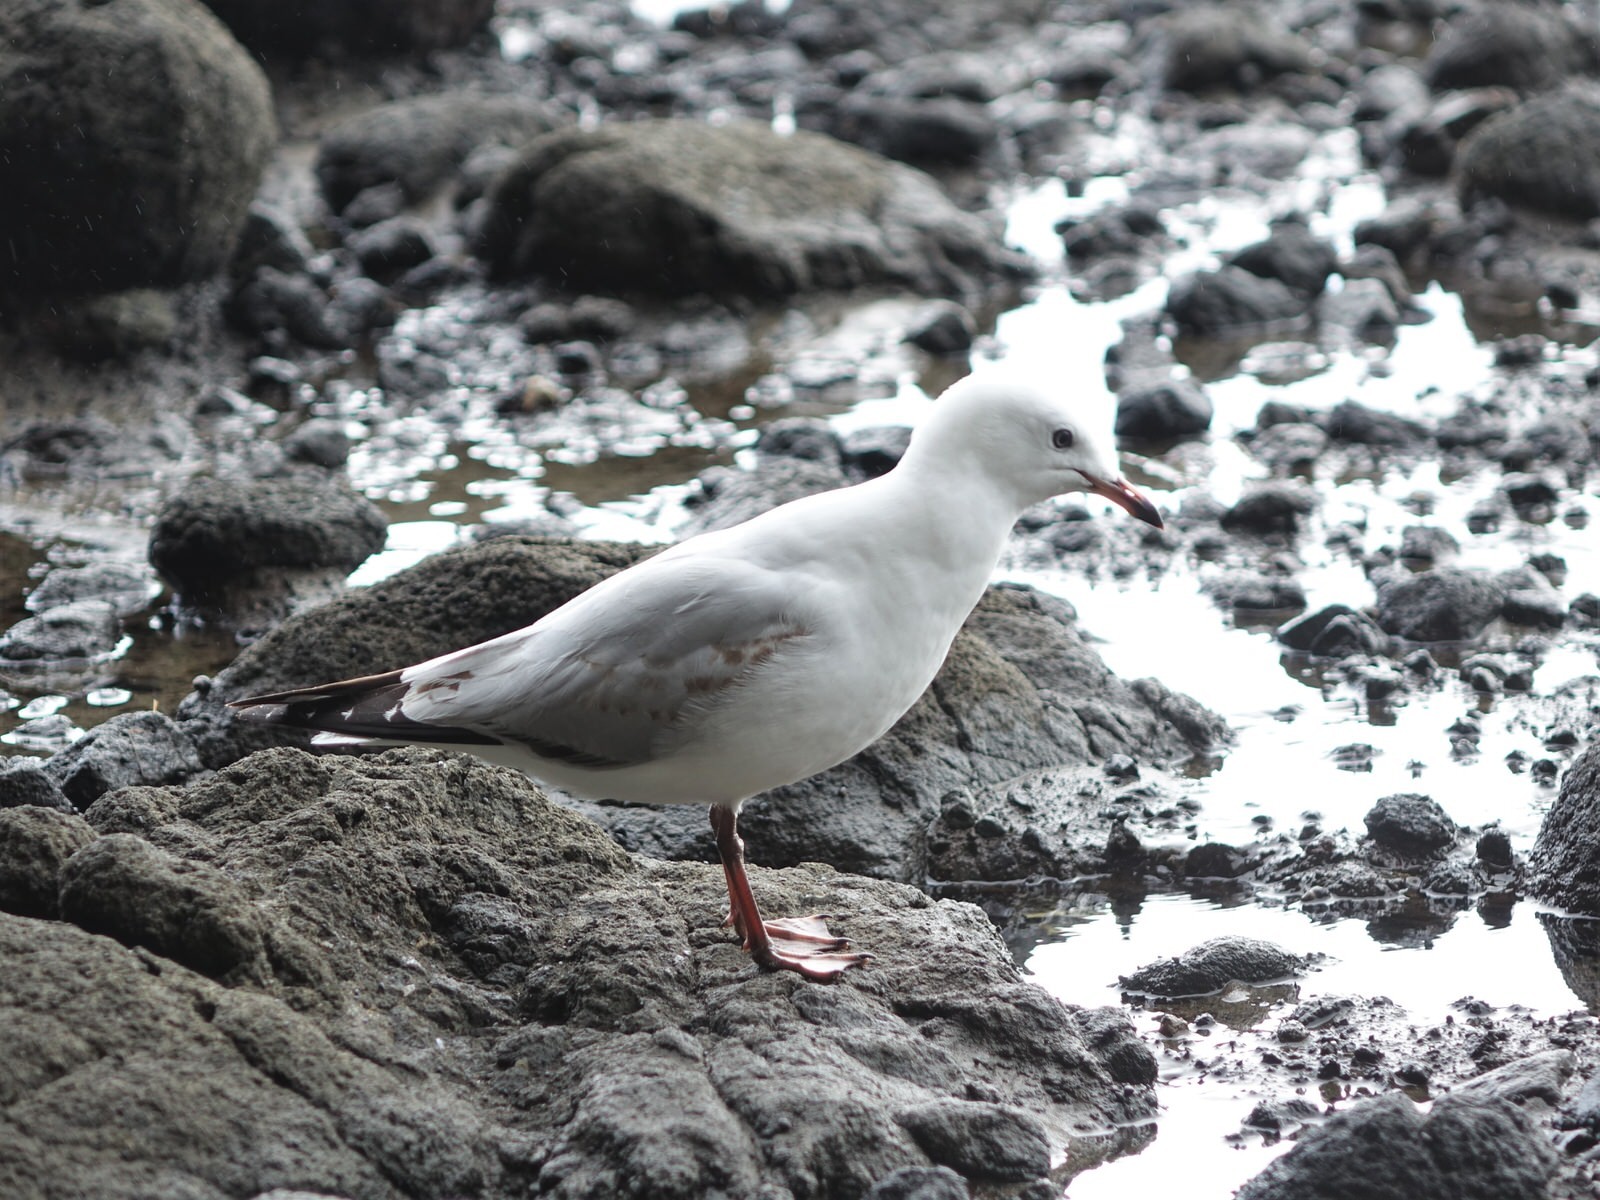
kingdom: Animalia
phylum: Chordata
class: Aves
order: Charadriiformes
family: Laridae
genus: Chroicocephalus
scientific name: Chroicocephalus novaehollandiae
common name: Silver gull
